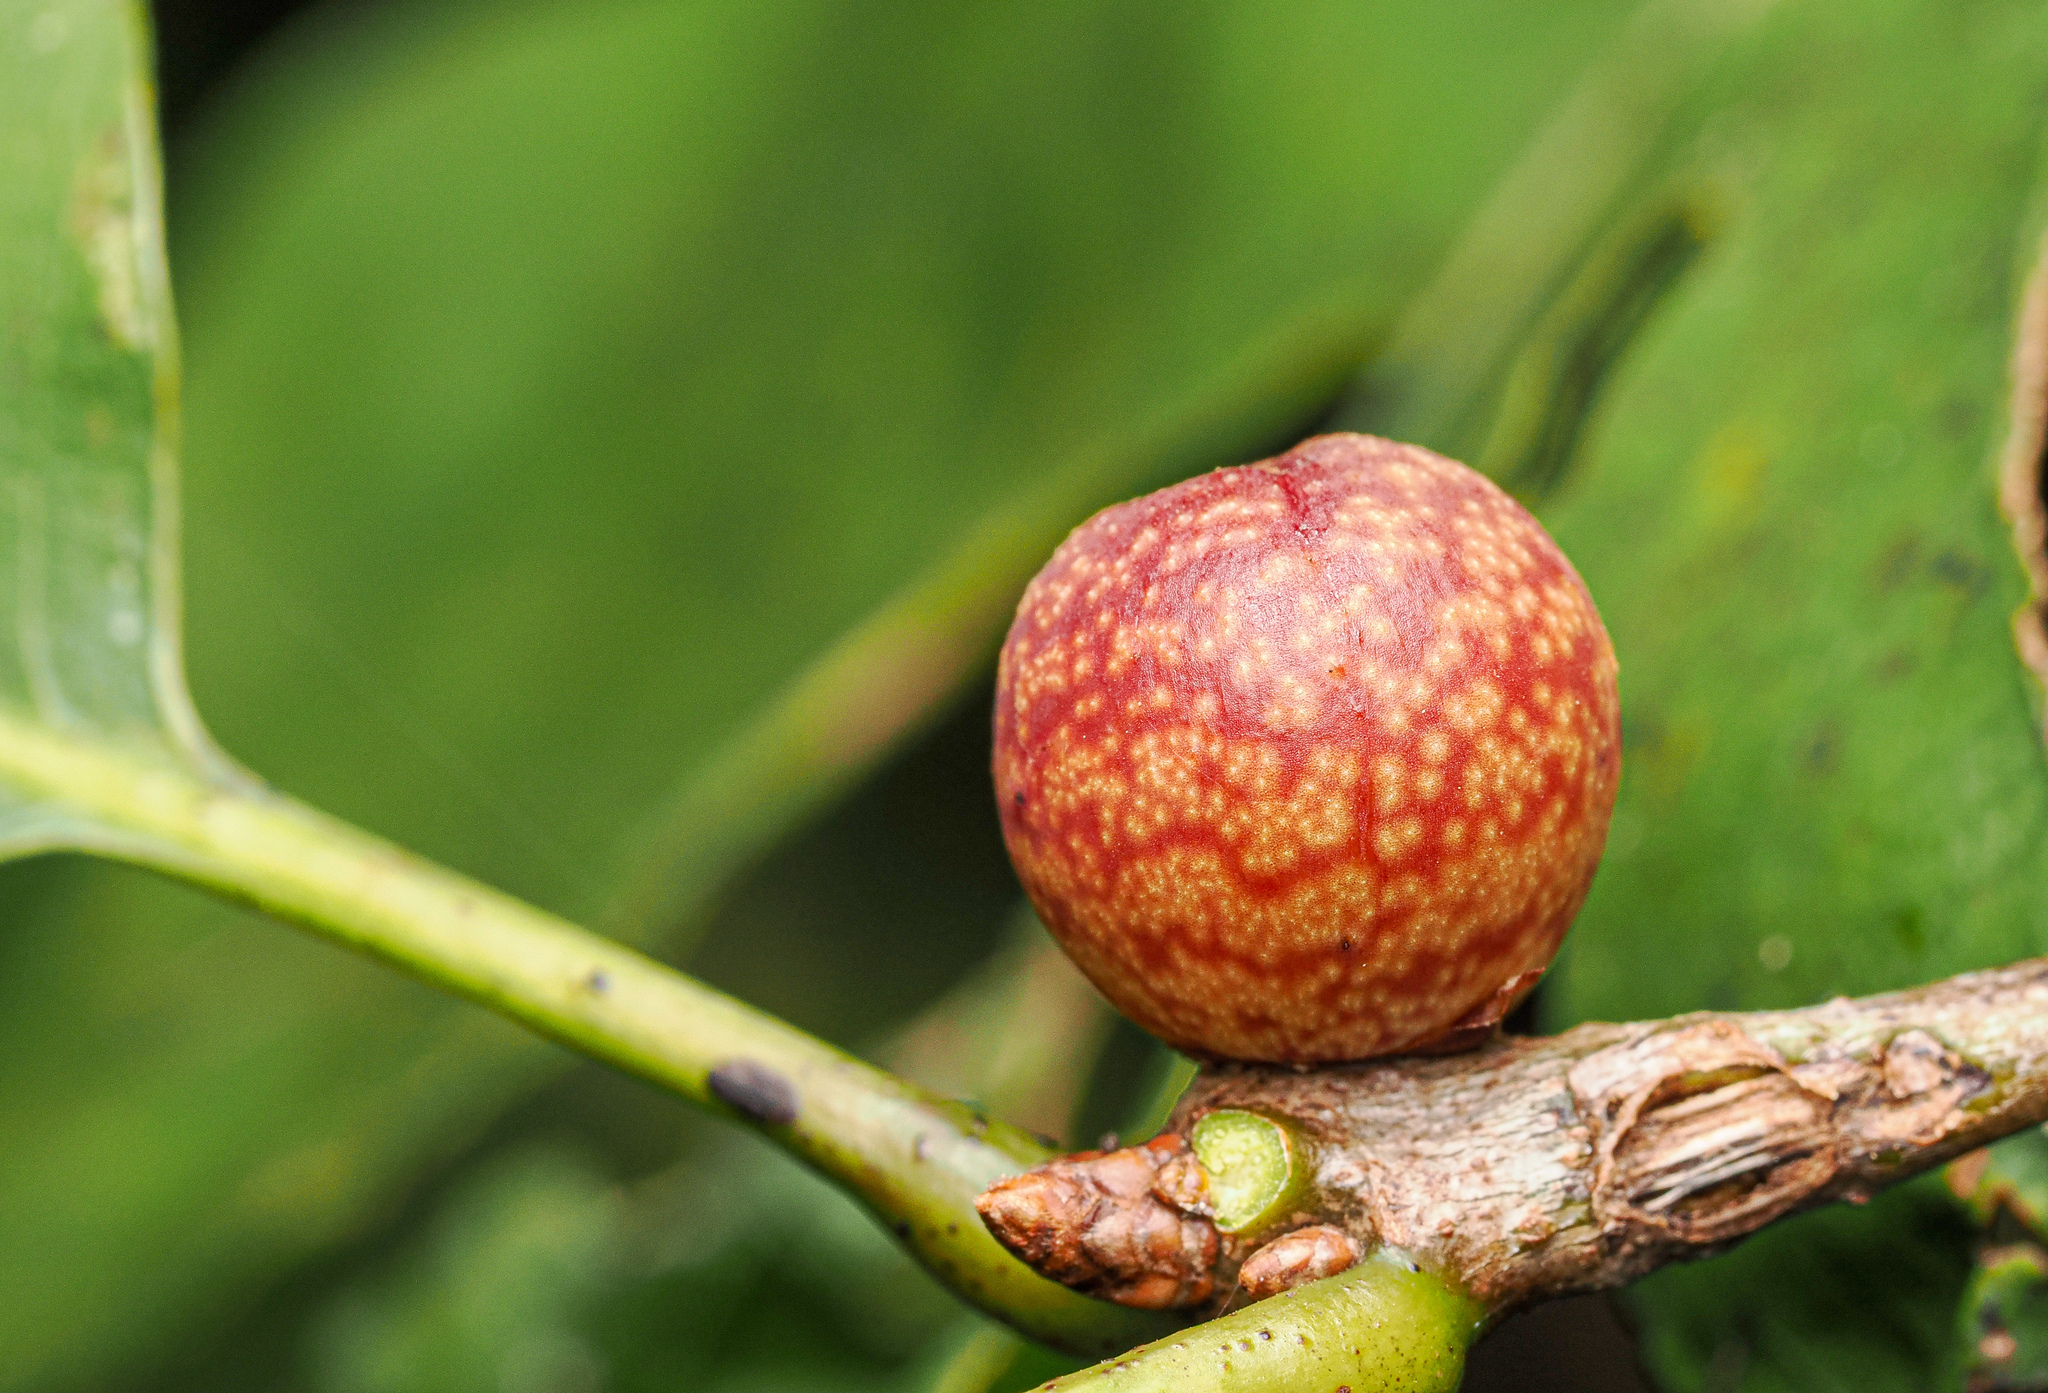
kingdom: Animalia
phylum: Arthropoda
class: Insecta
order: Hymenoptera
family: Cynipidae
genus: Kokkocynips
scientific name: Kokkocynips imbricariae
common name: Banded bullet gall wasp
